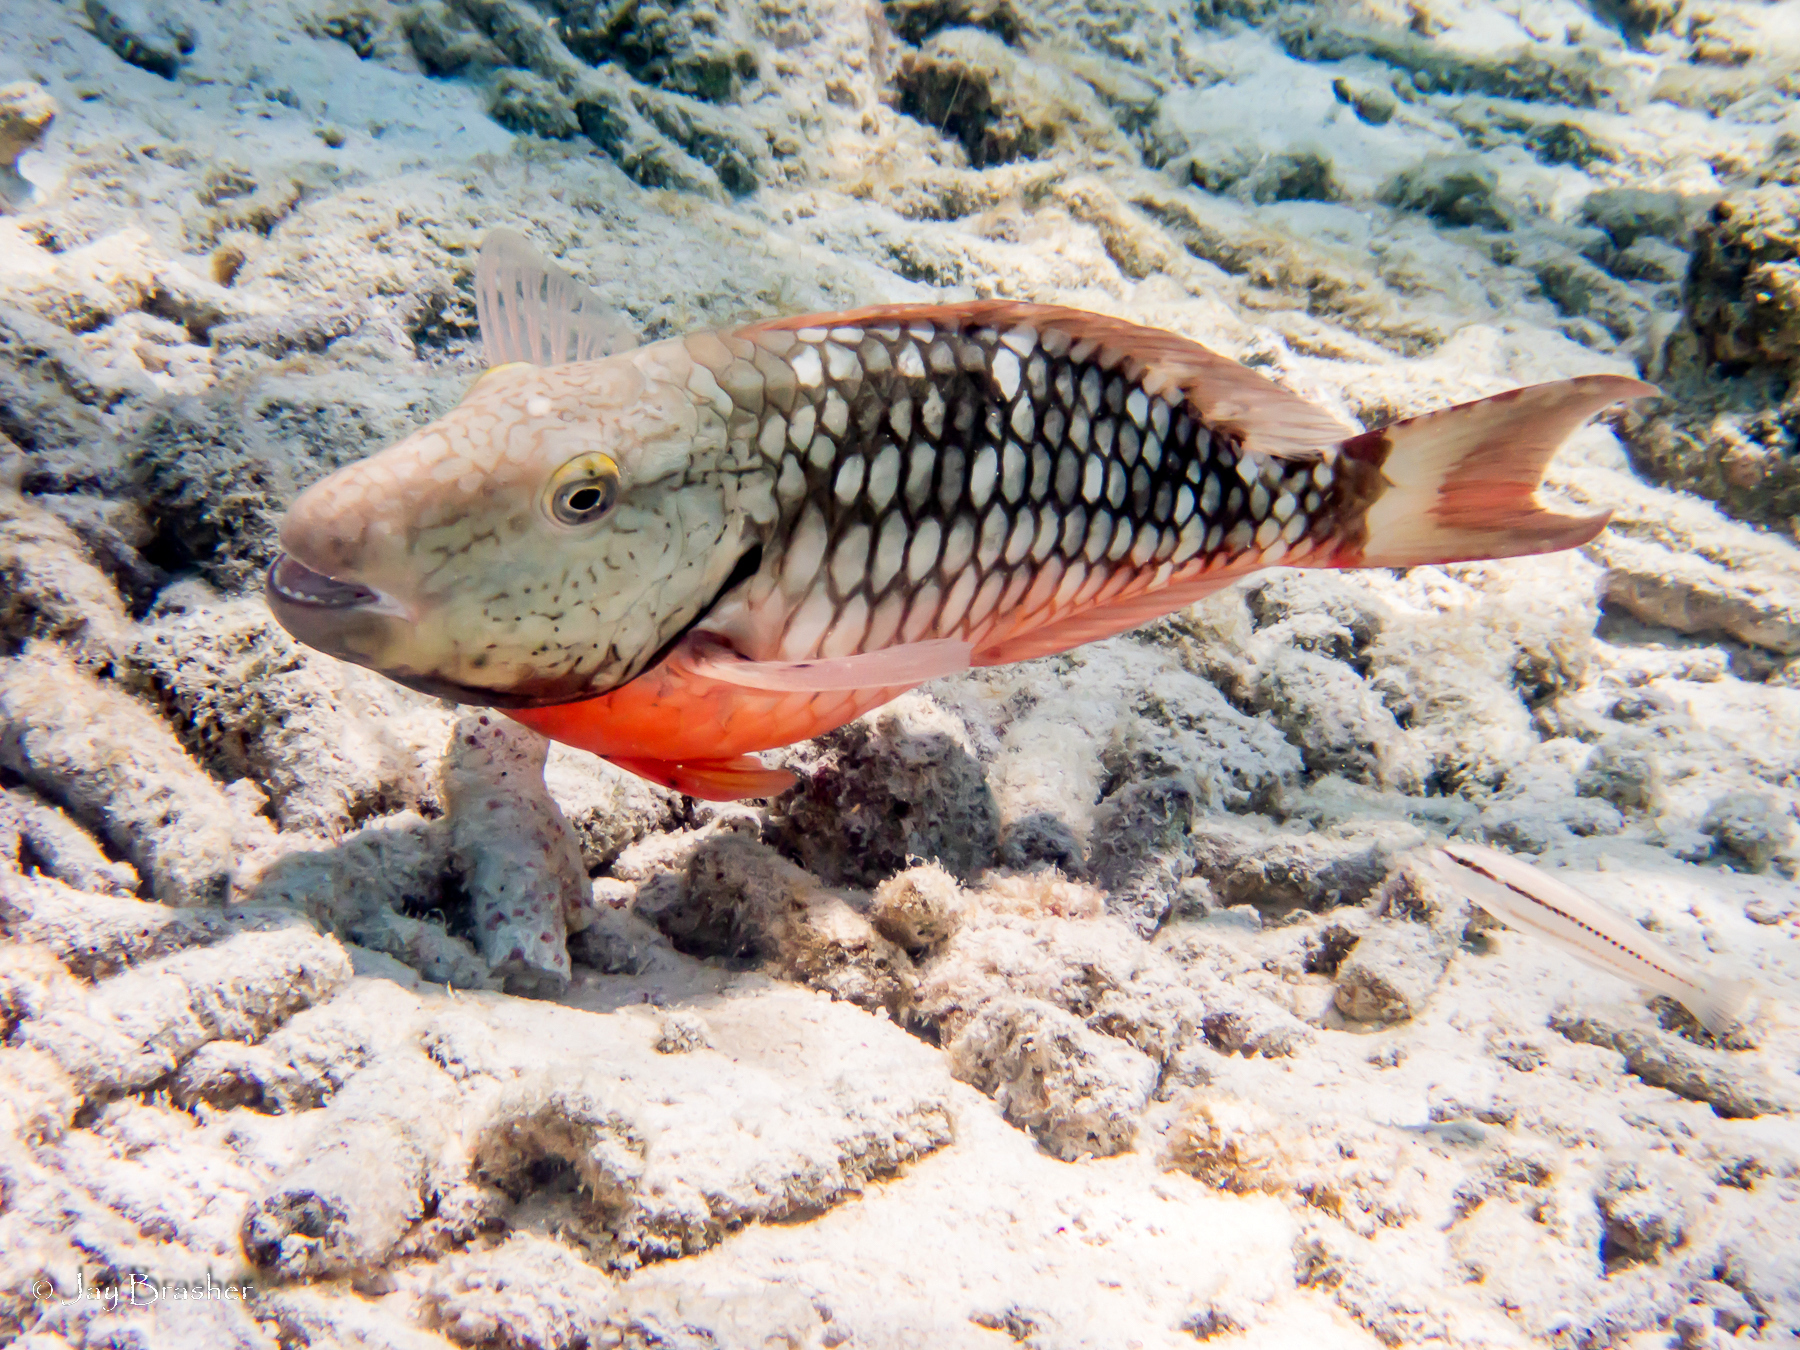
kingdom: Animalia
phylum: Chordata
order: Perciformes
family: Labridae
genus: Halichoeres
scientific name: Halichoeres bivittatus
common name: Slippery dick
